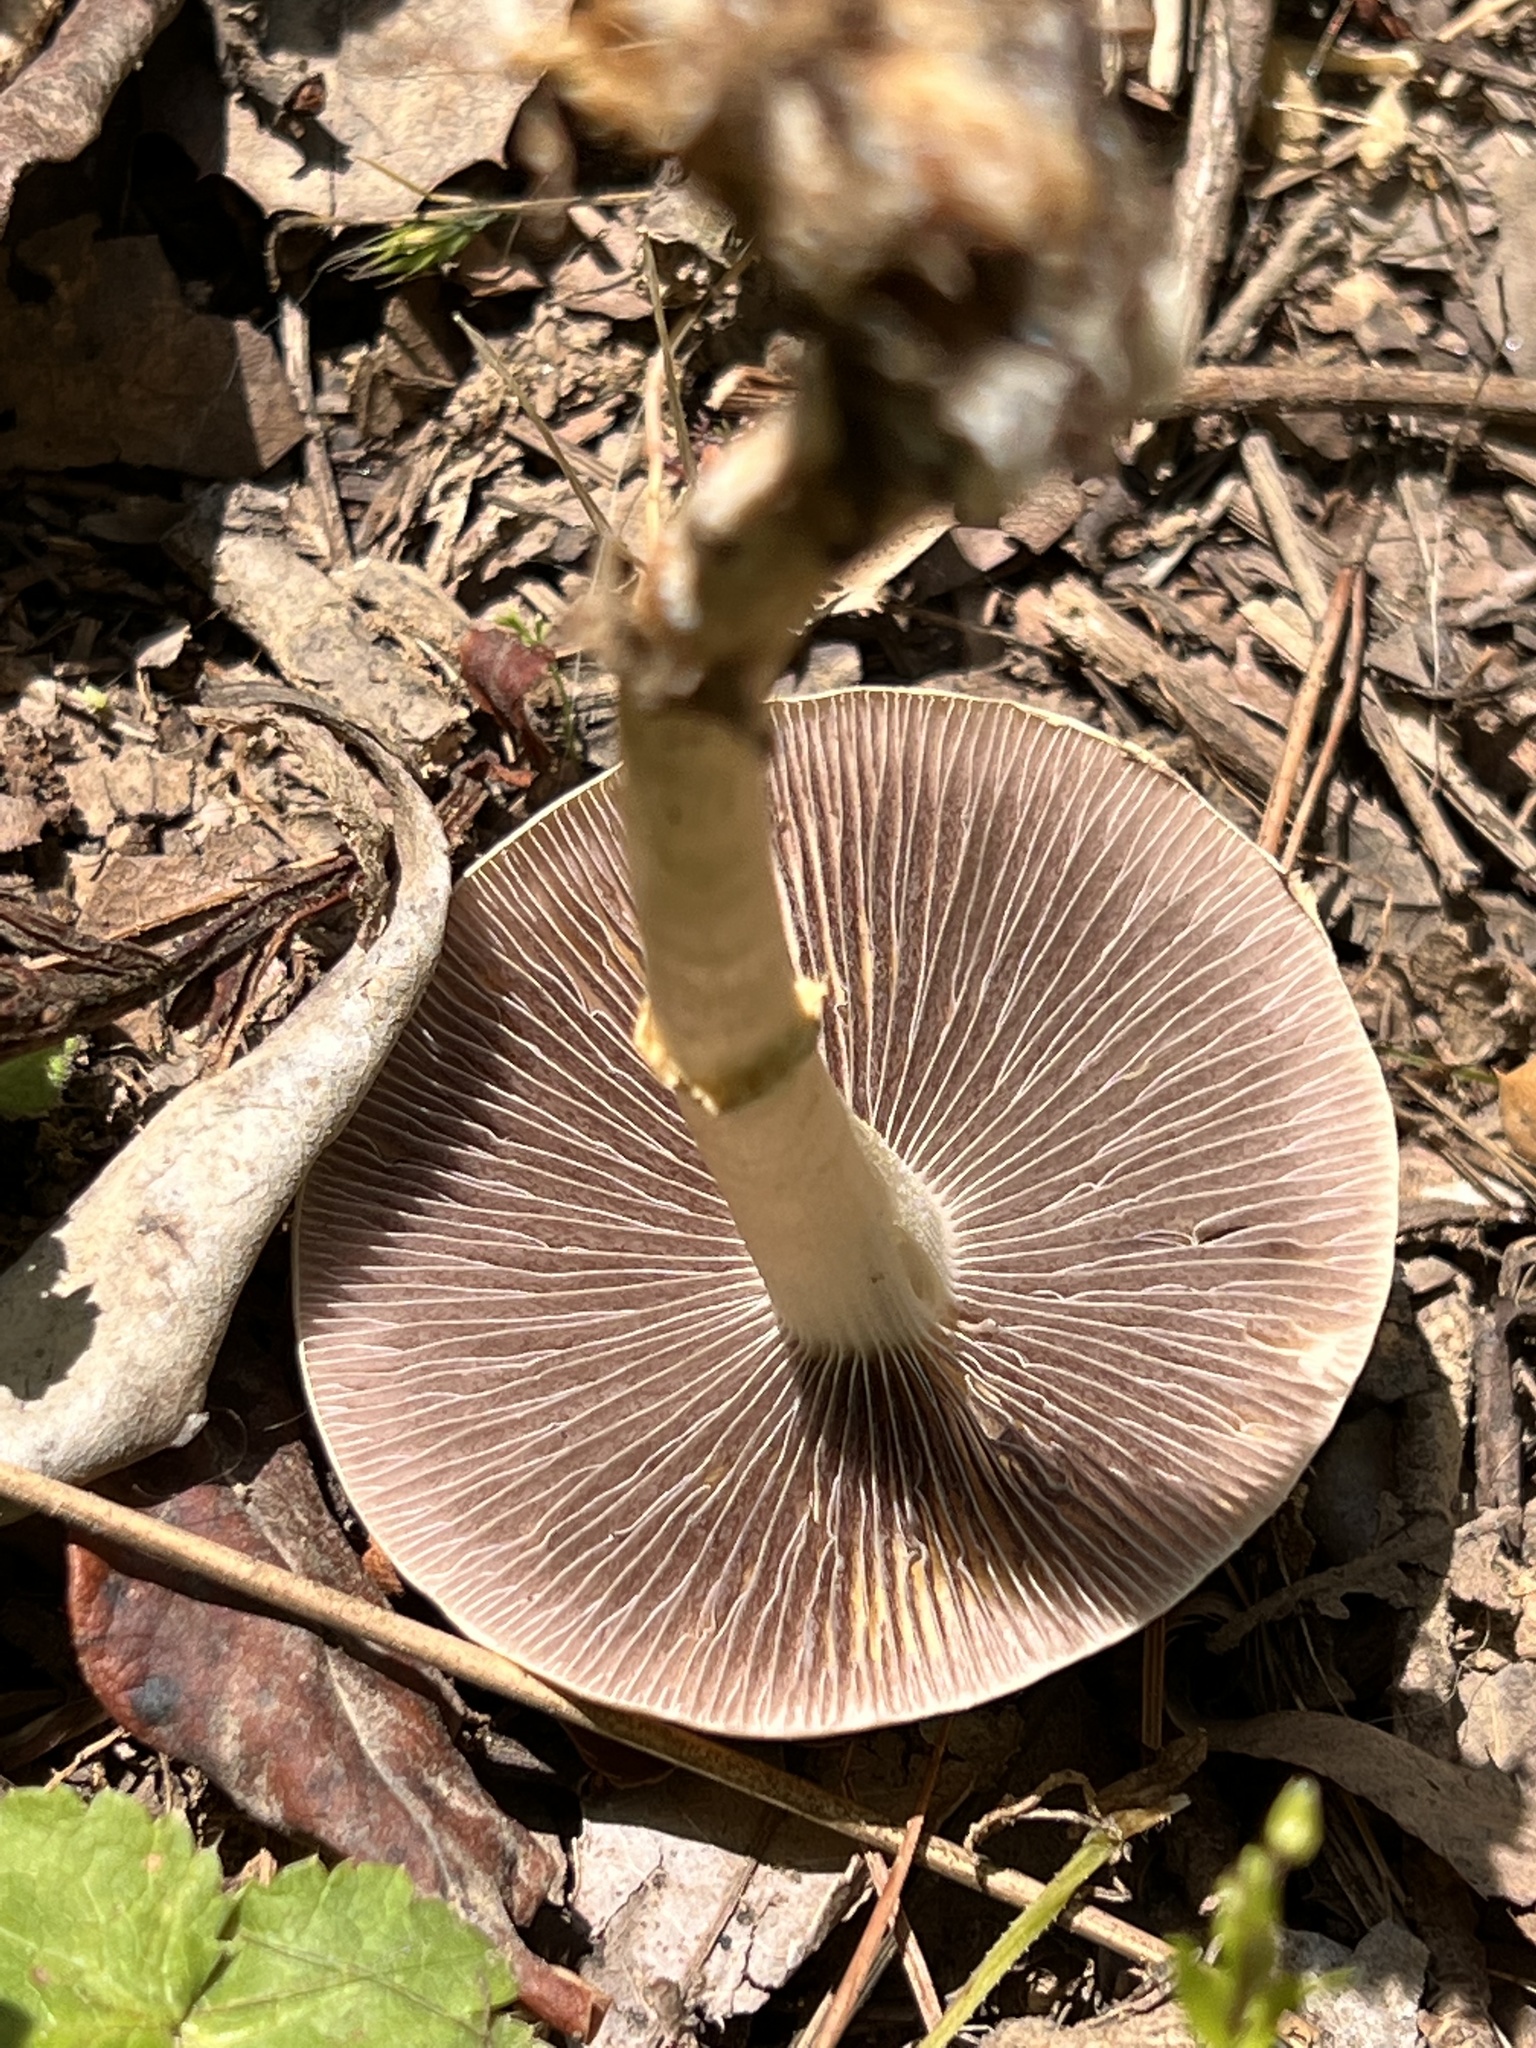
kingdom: Fungi
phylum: Basidiomycota
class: Agaricomycetes
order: Agaricales
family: Strophariaceae
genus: Leratiomyces
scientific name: Leratiomyces percevalii
